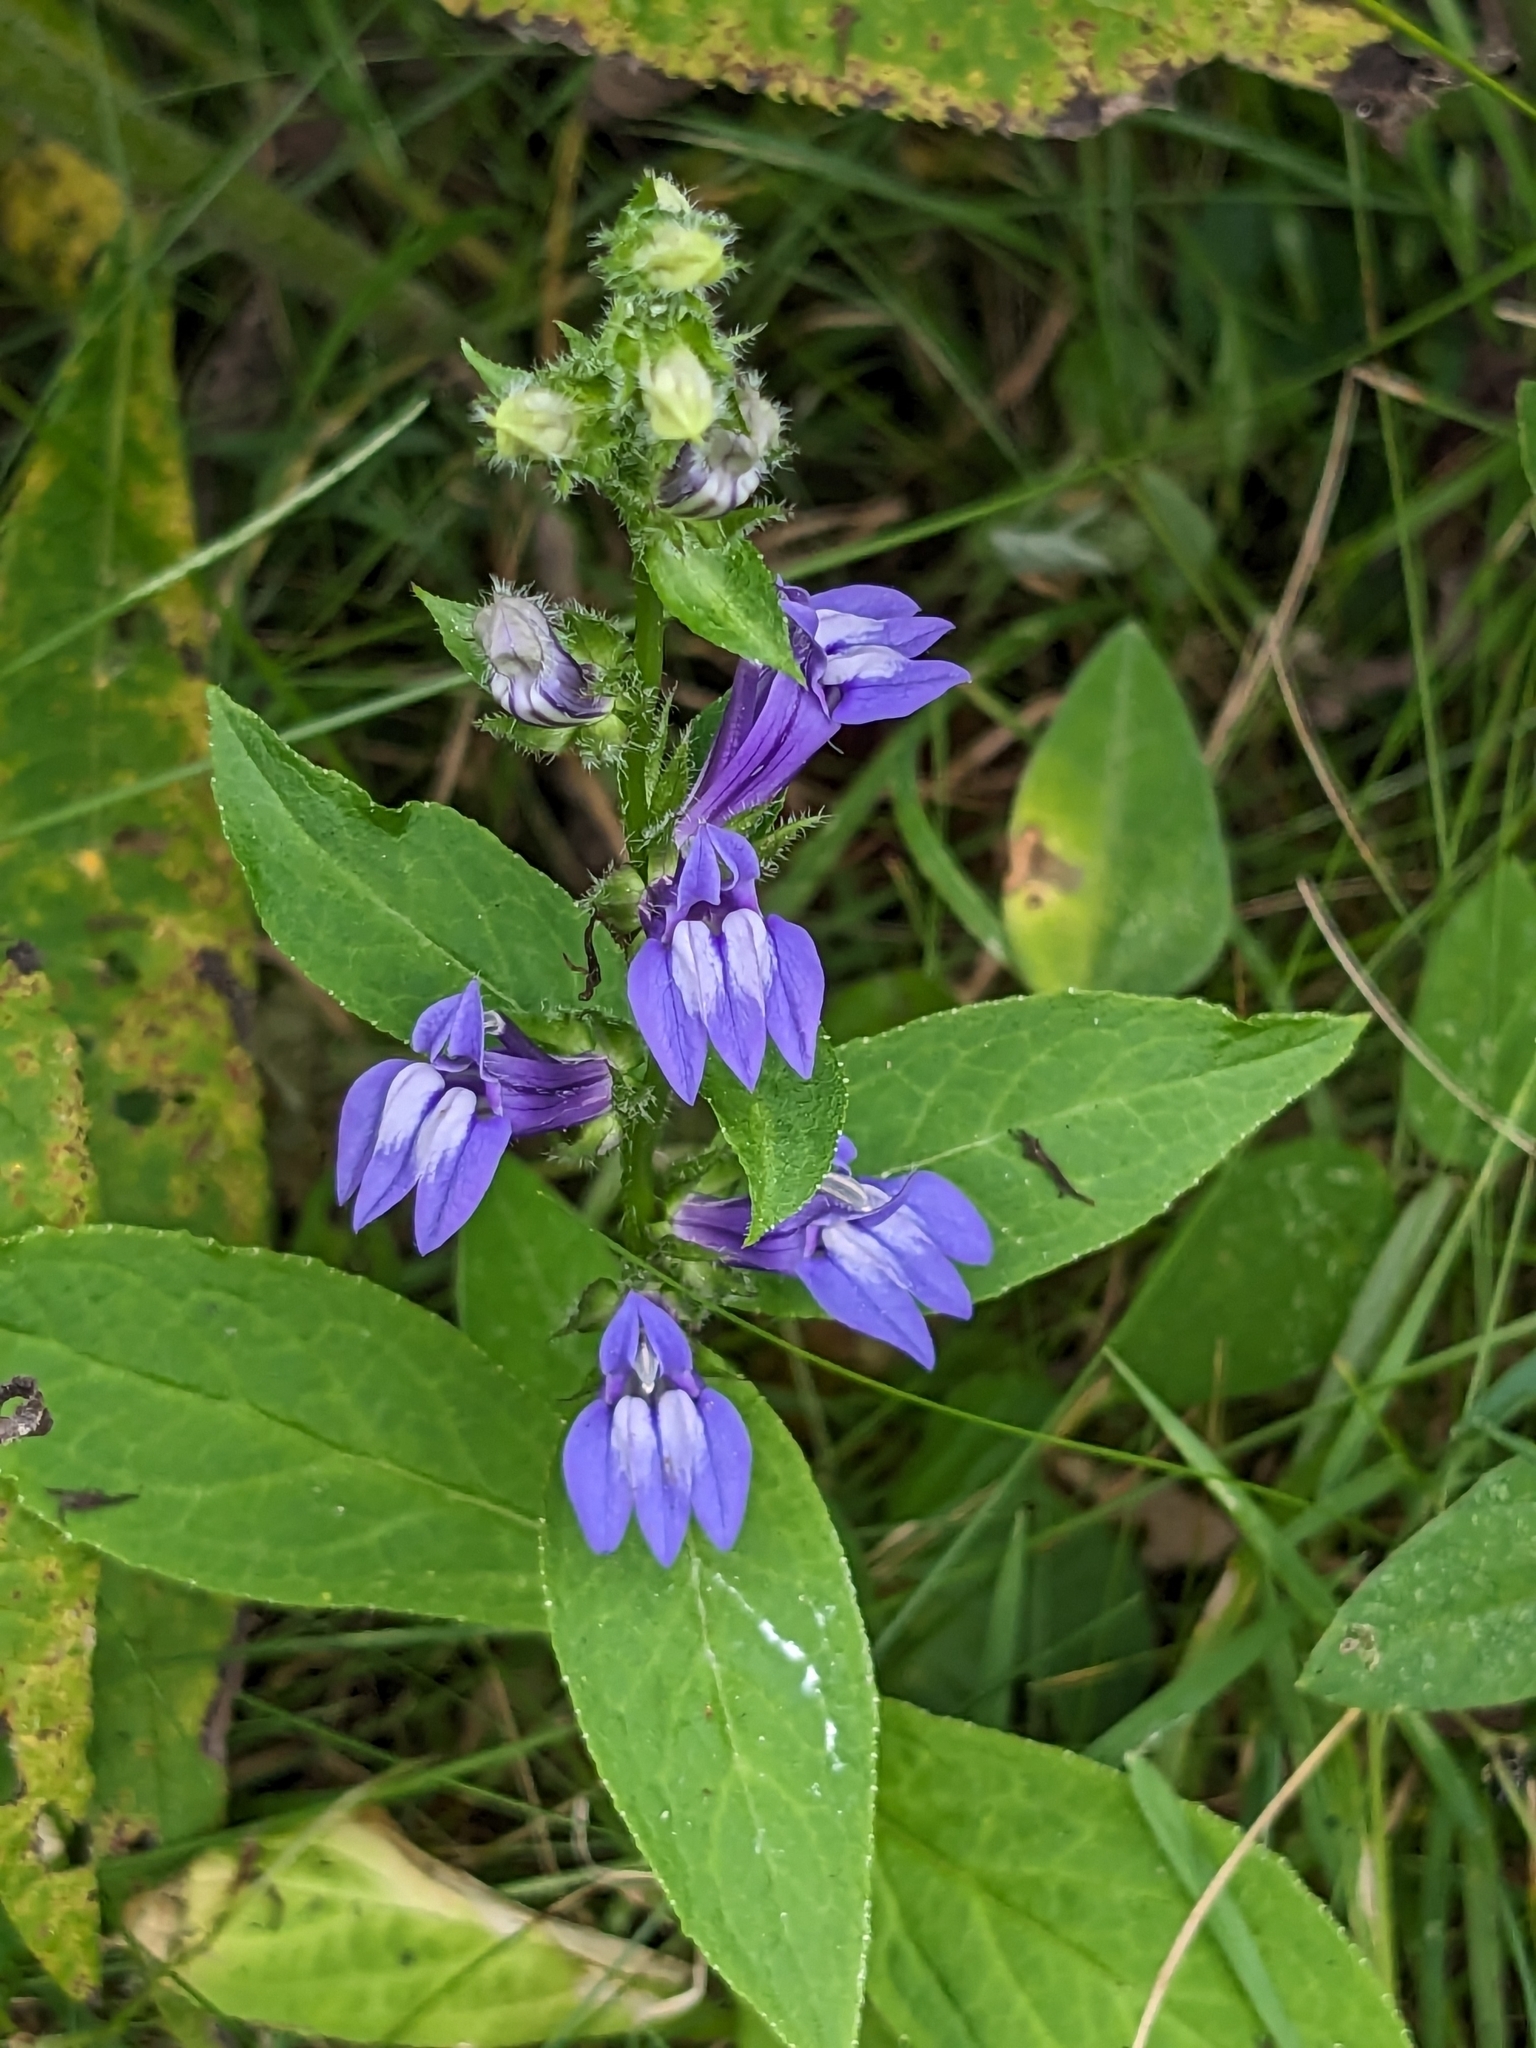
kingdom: Plantae
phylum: Tracheophyta
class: Magnoliopsida
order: Asterales
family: Campanulaceae
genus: Lobelia
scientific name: Lobelia siphilitica
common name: Great lobelia
